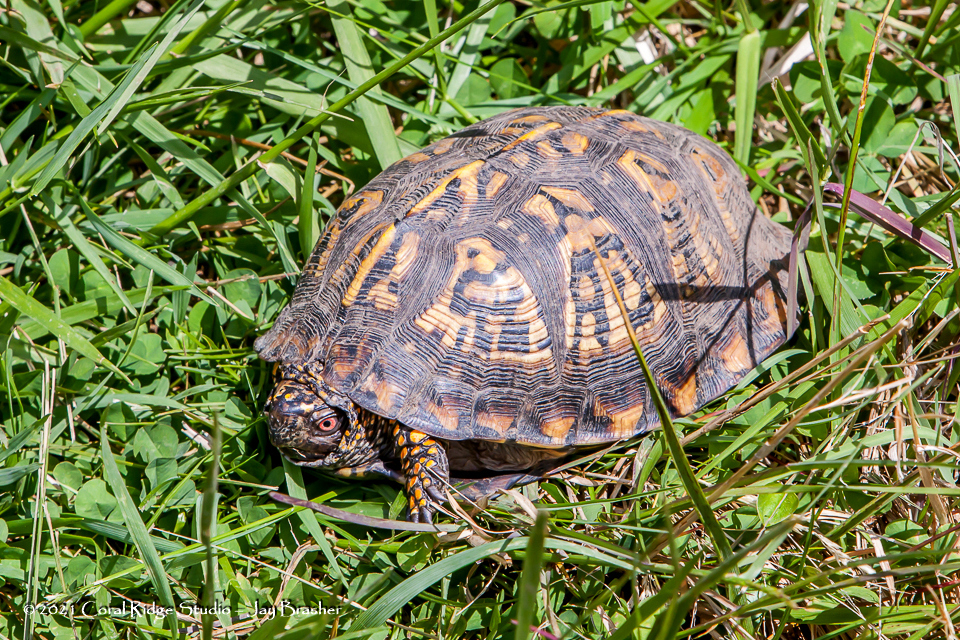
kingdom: Animalia
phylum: Chordata
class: Testudines
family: Emydidae
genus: Terrapene
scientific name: Terrapene carolina
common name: Common box turtle
